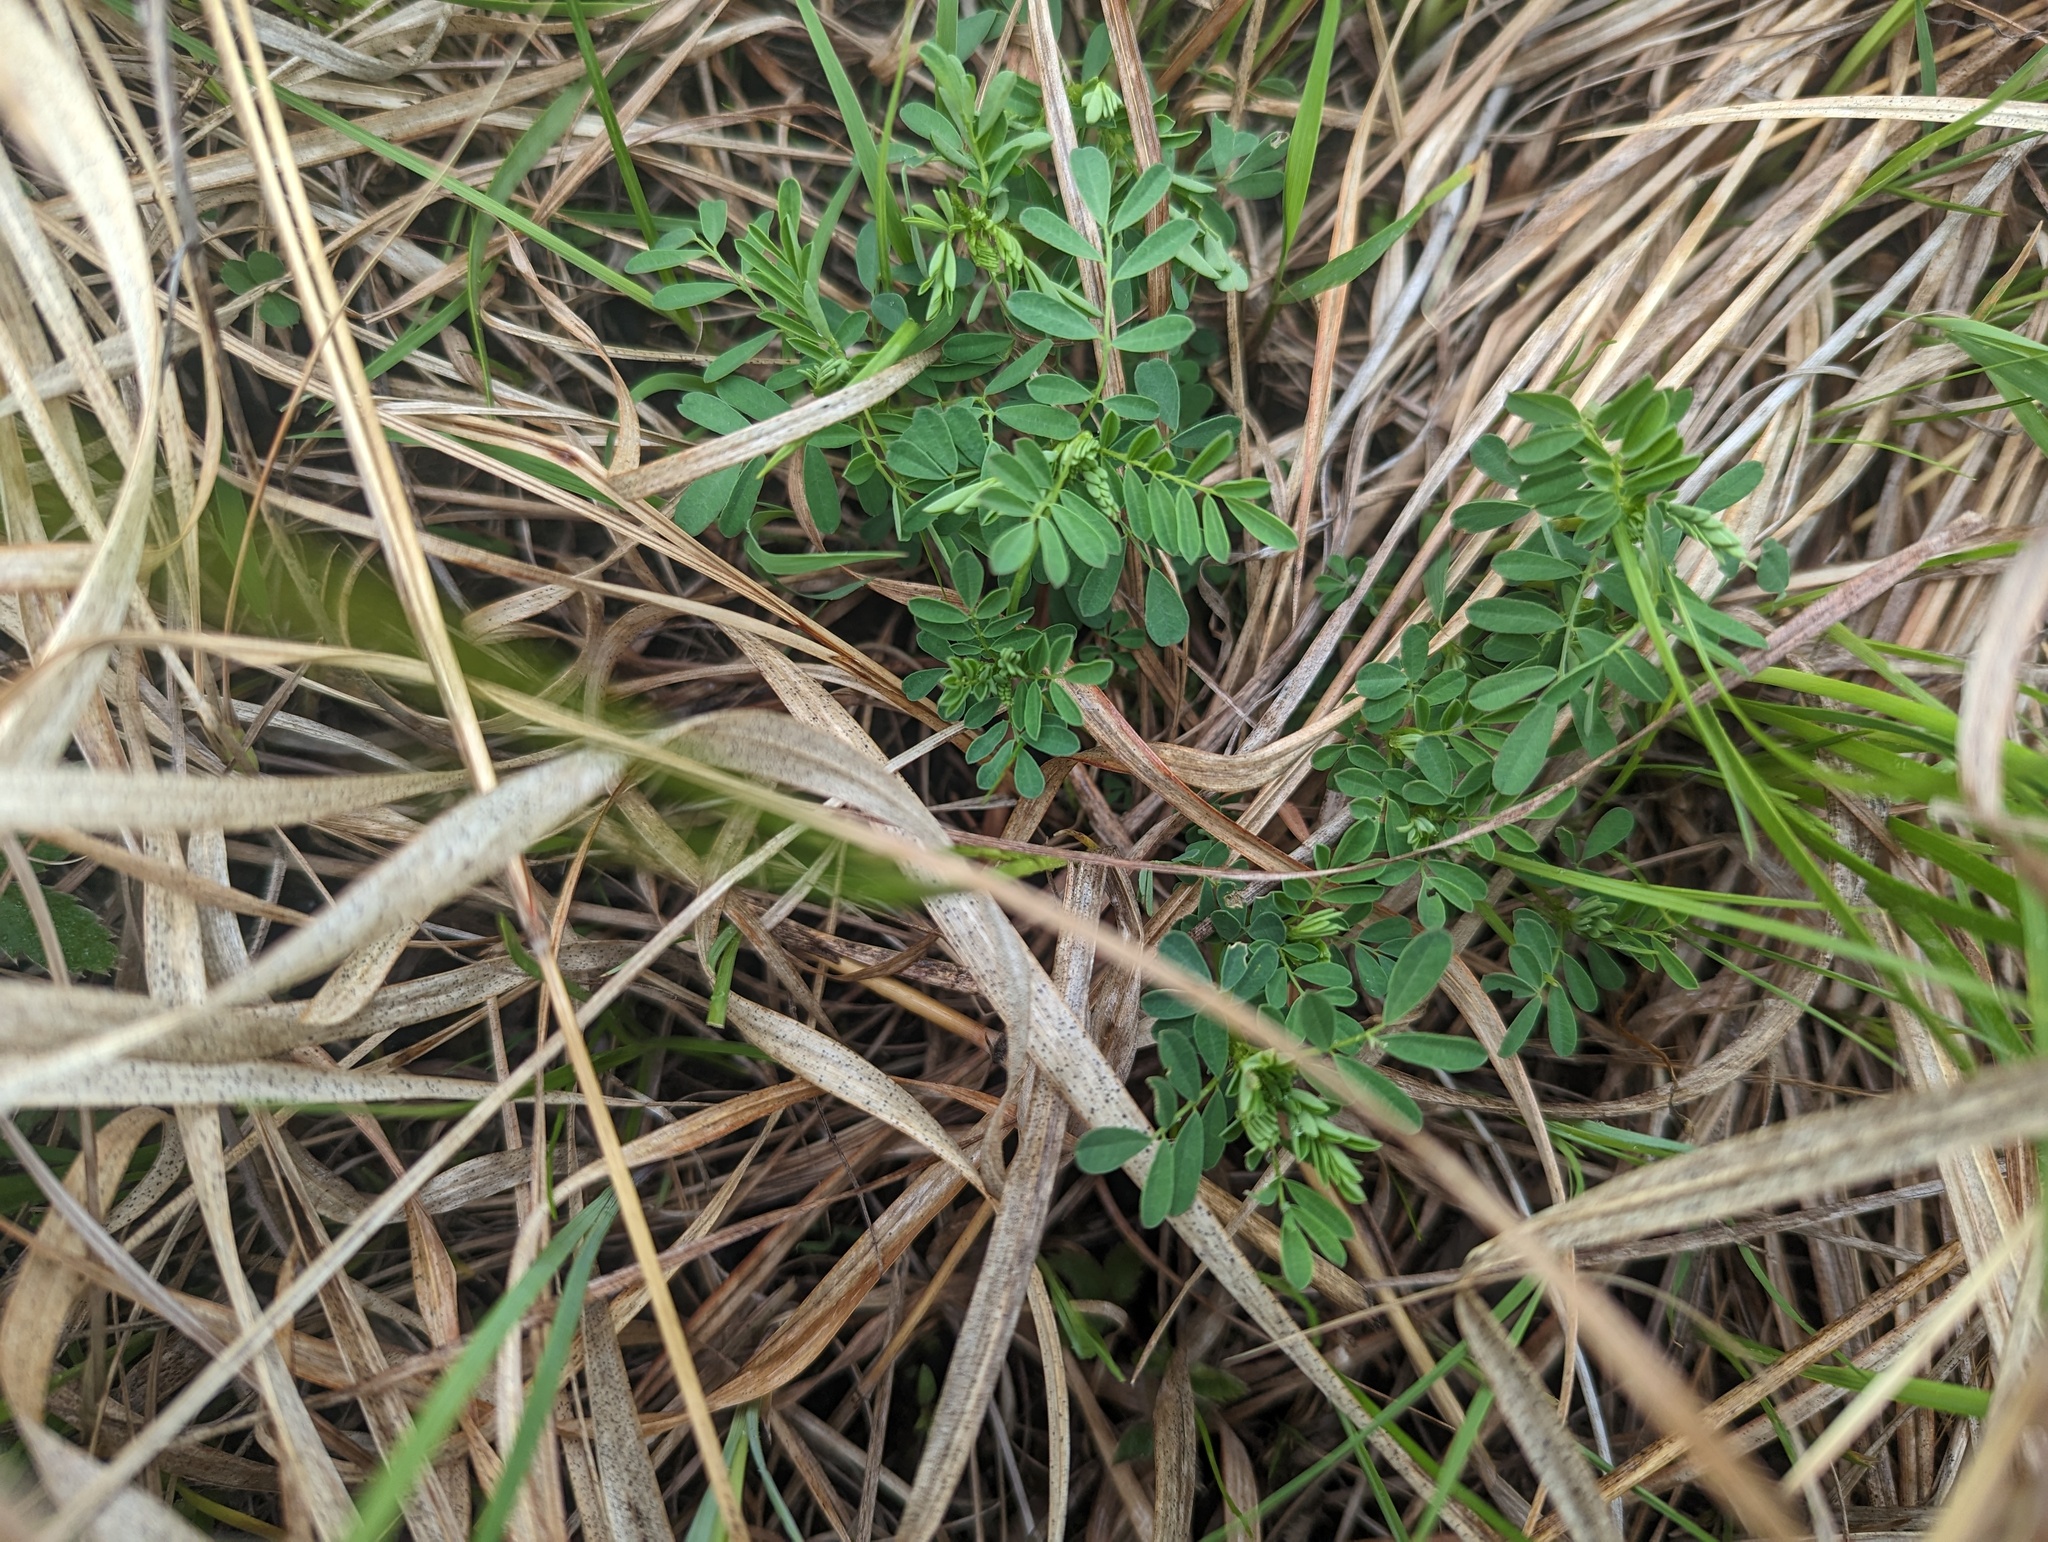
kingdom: Plantae
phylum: Tracheophyta
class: Magnoliopsida
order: Fabales
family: Fabaceae
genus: Dalea
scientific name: Dalea foliosa
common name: Leafy prairie-clover
